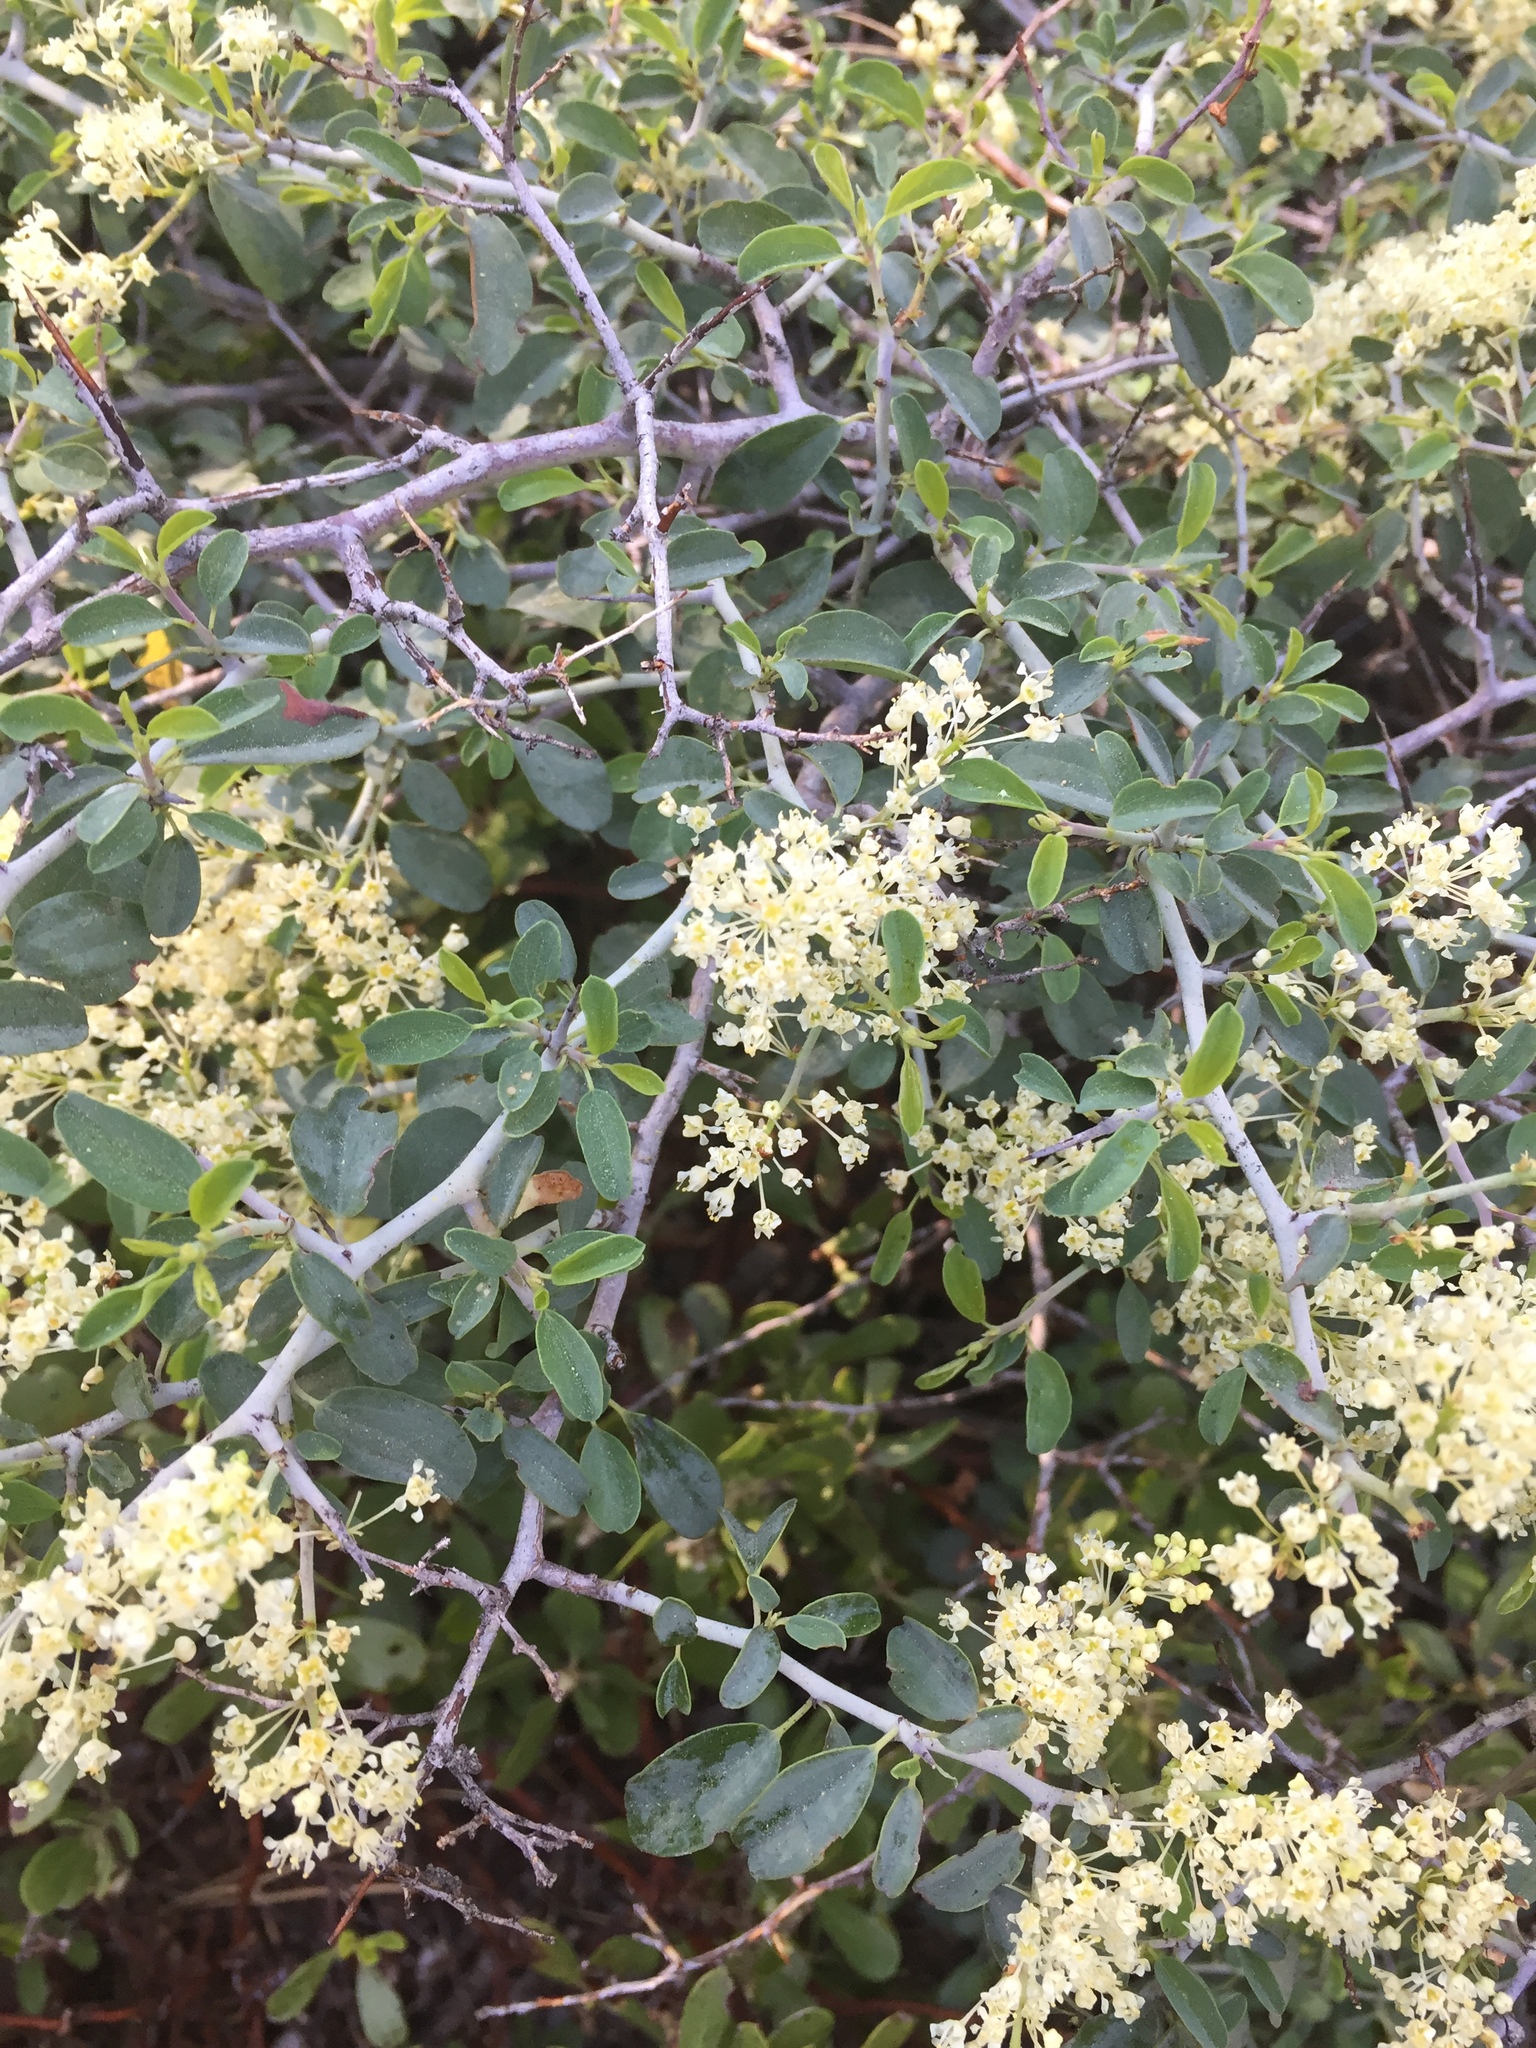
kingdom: Plantae
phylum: Tracheophyta
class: Magnoliopsida
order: Rosales
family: Rhamnaceae
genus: Ceanothus
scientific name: Ceanothus cordulatus
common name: Mountain whitethorn
